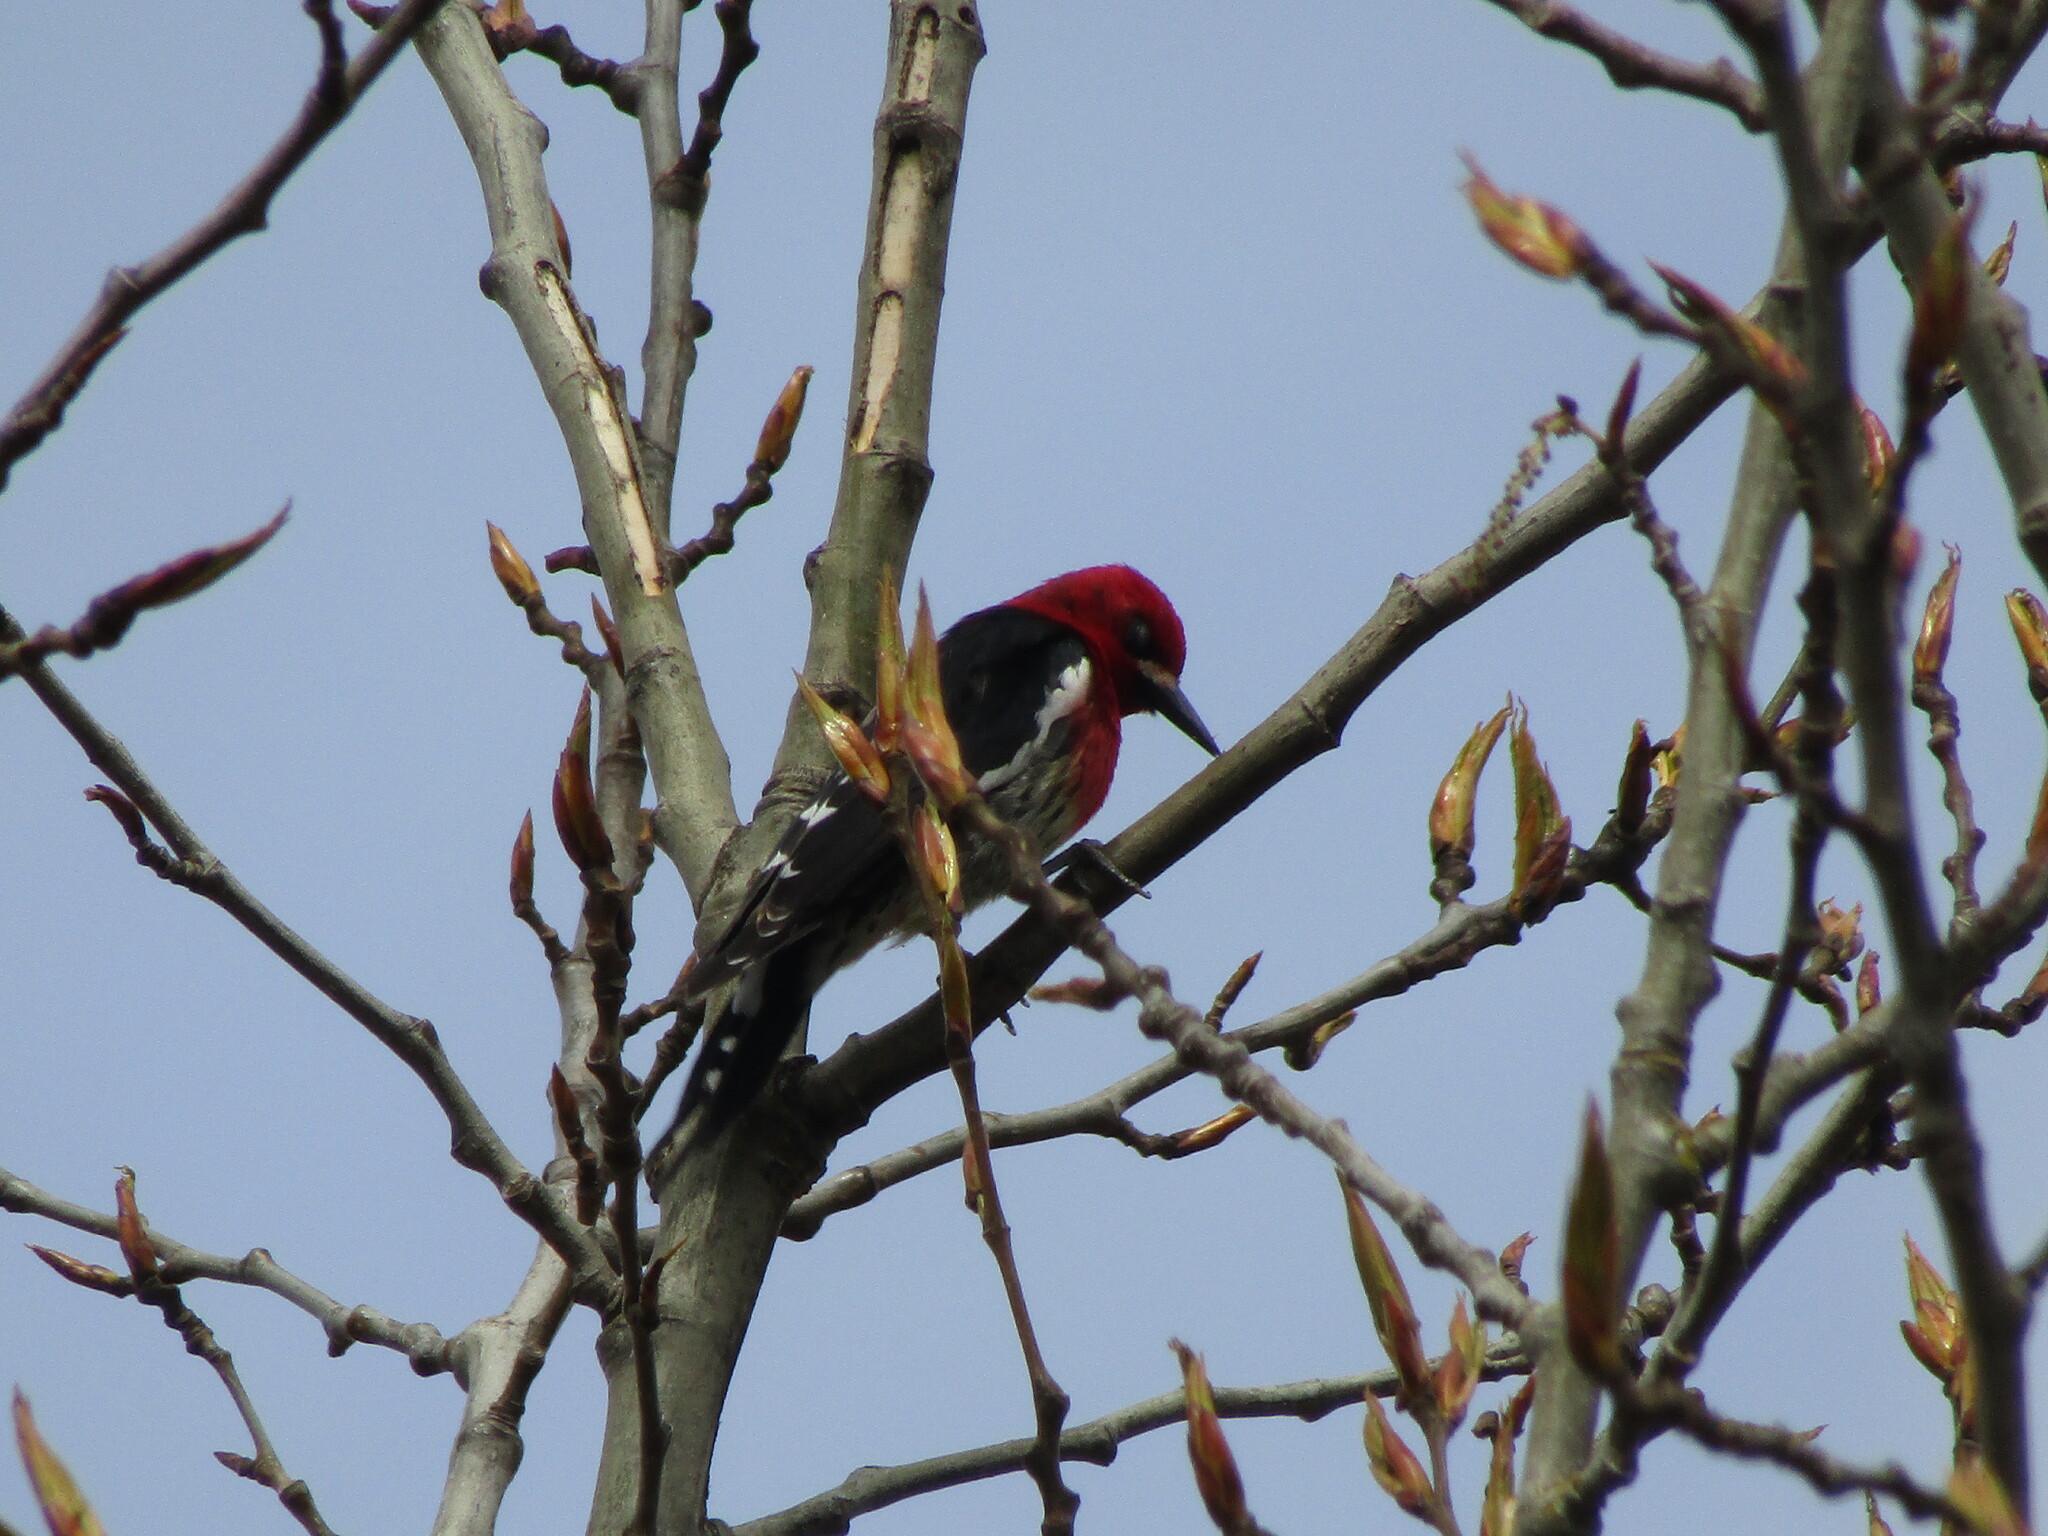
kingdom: Animalia
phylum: Chordata
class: Aves
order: Piciformes
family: Picidae
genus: Sphyrapicus
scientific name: Sphyrapicus ruber
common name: Red-breasted sapsucker
